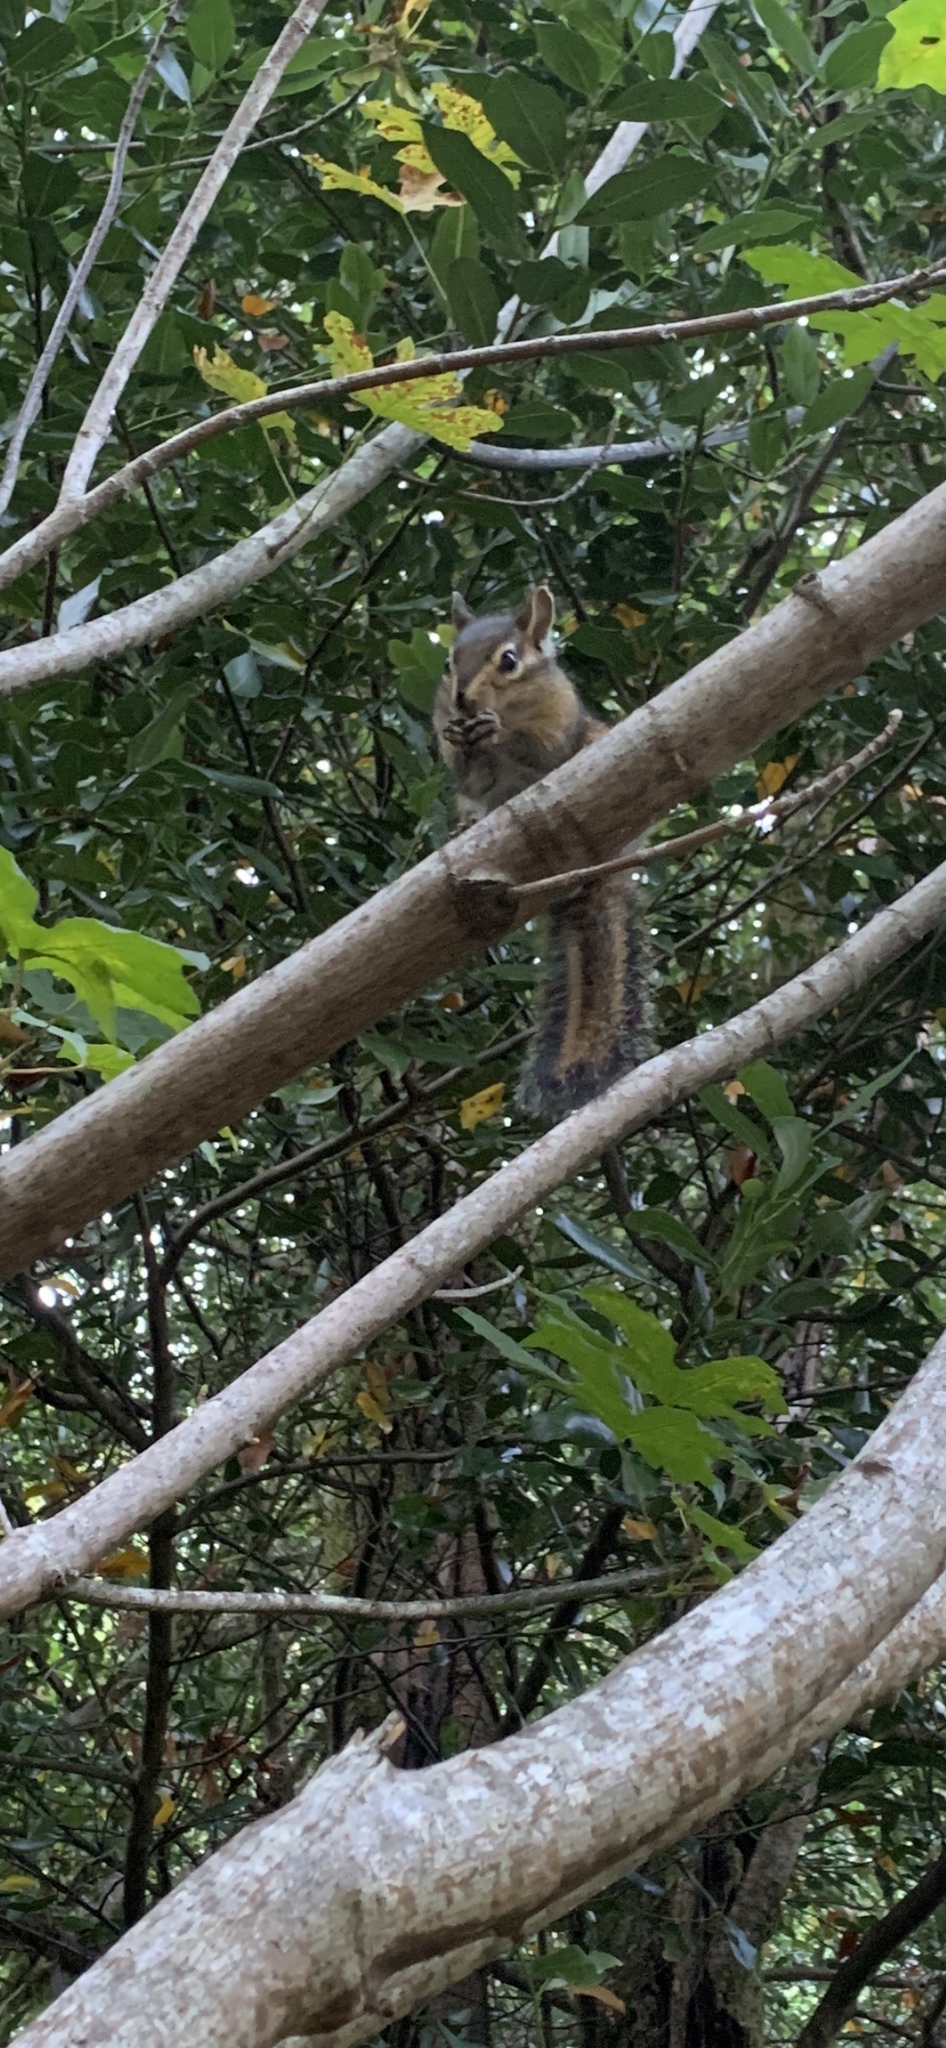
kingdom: Animalia
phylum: Chordata
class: Mammalia
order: Rodentia
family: Sciuridae
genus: Tamias
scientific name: Tamias townsendii
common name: Townsend's chipmunk
